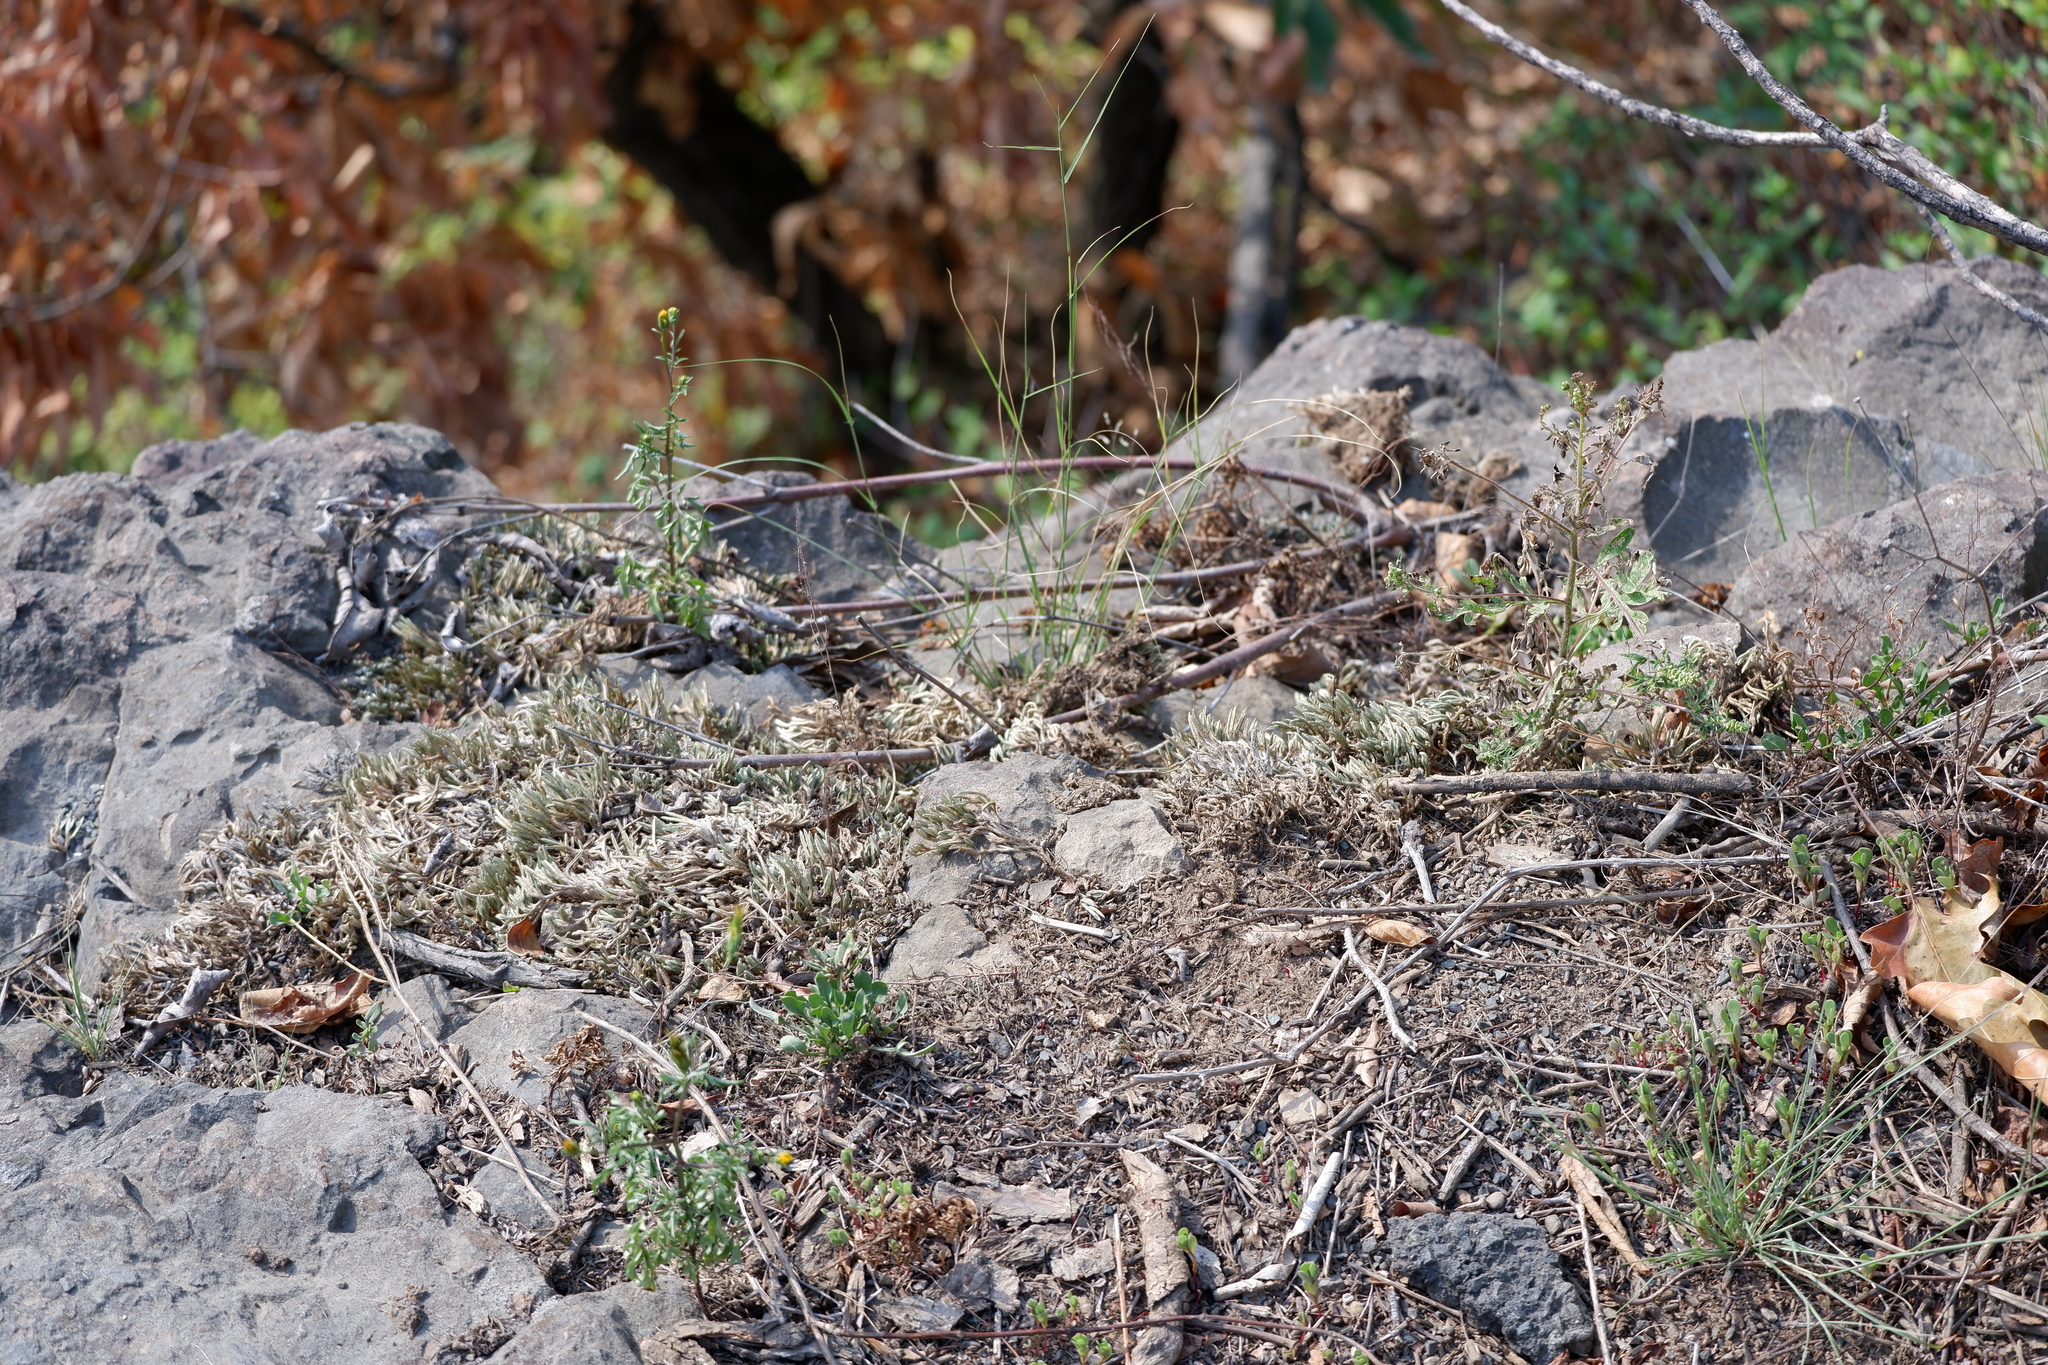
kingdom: Plantae
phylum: Tracheophyta
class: Lycopodiopsida
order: Selaginellales
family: Selaginellaceae
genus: Selaginella
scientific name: Selaginella rupestris
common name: Dwarf spikemoss
